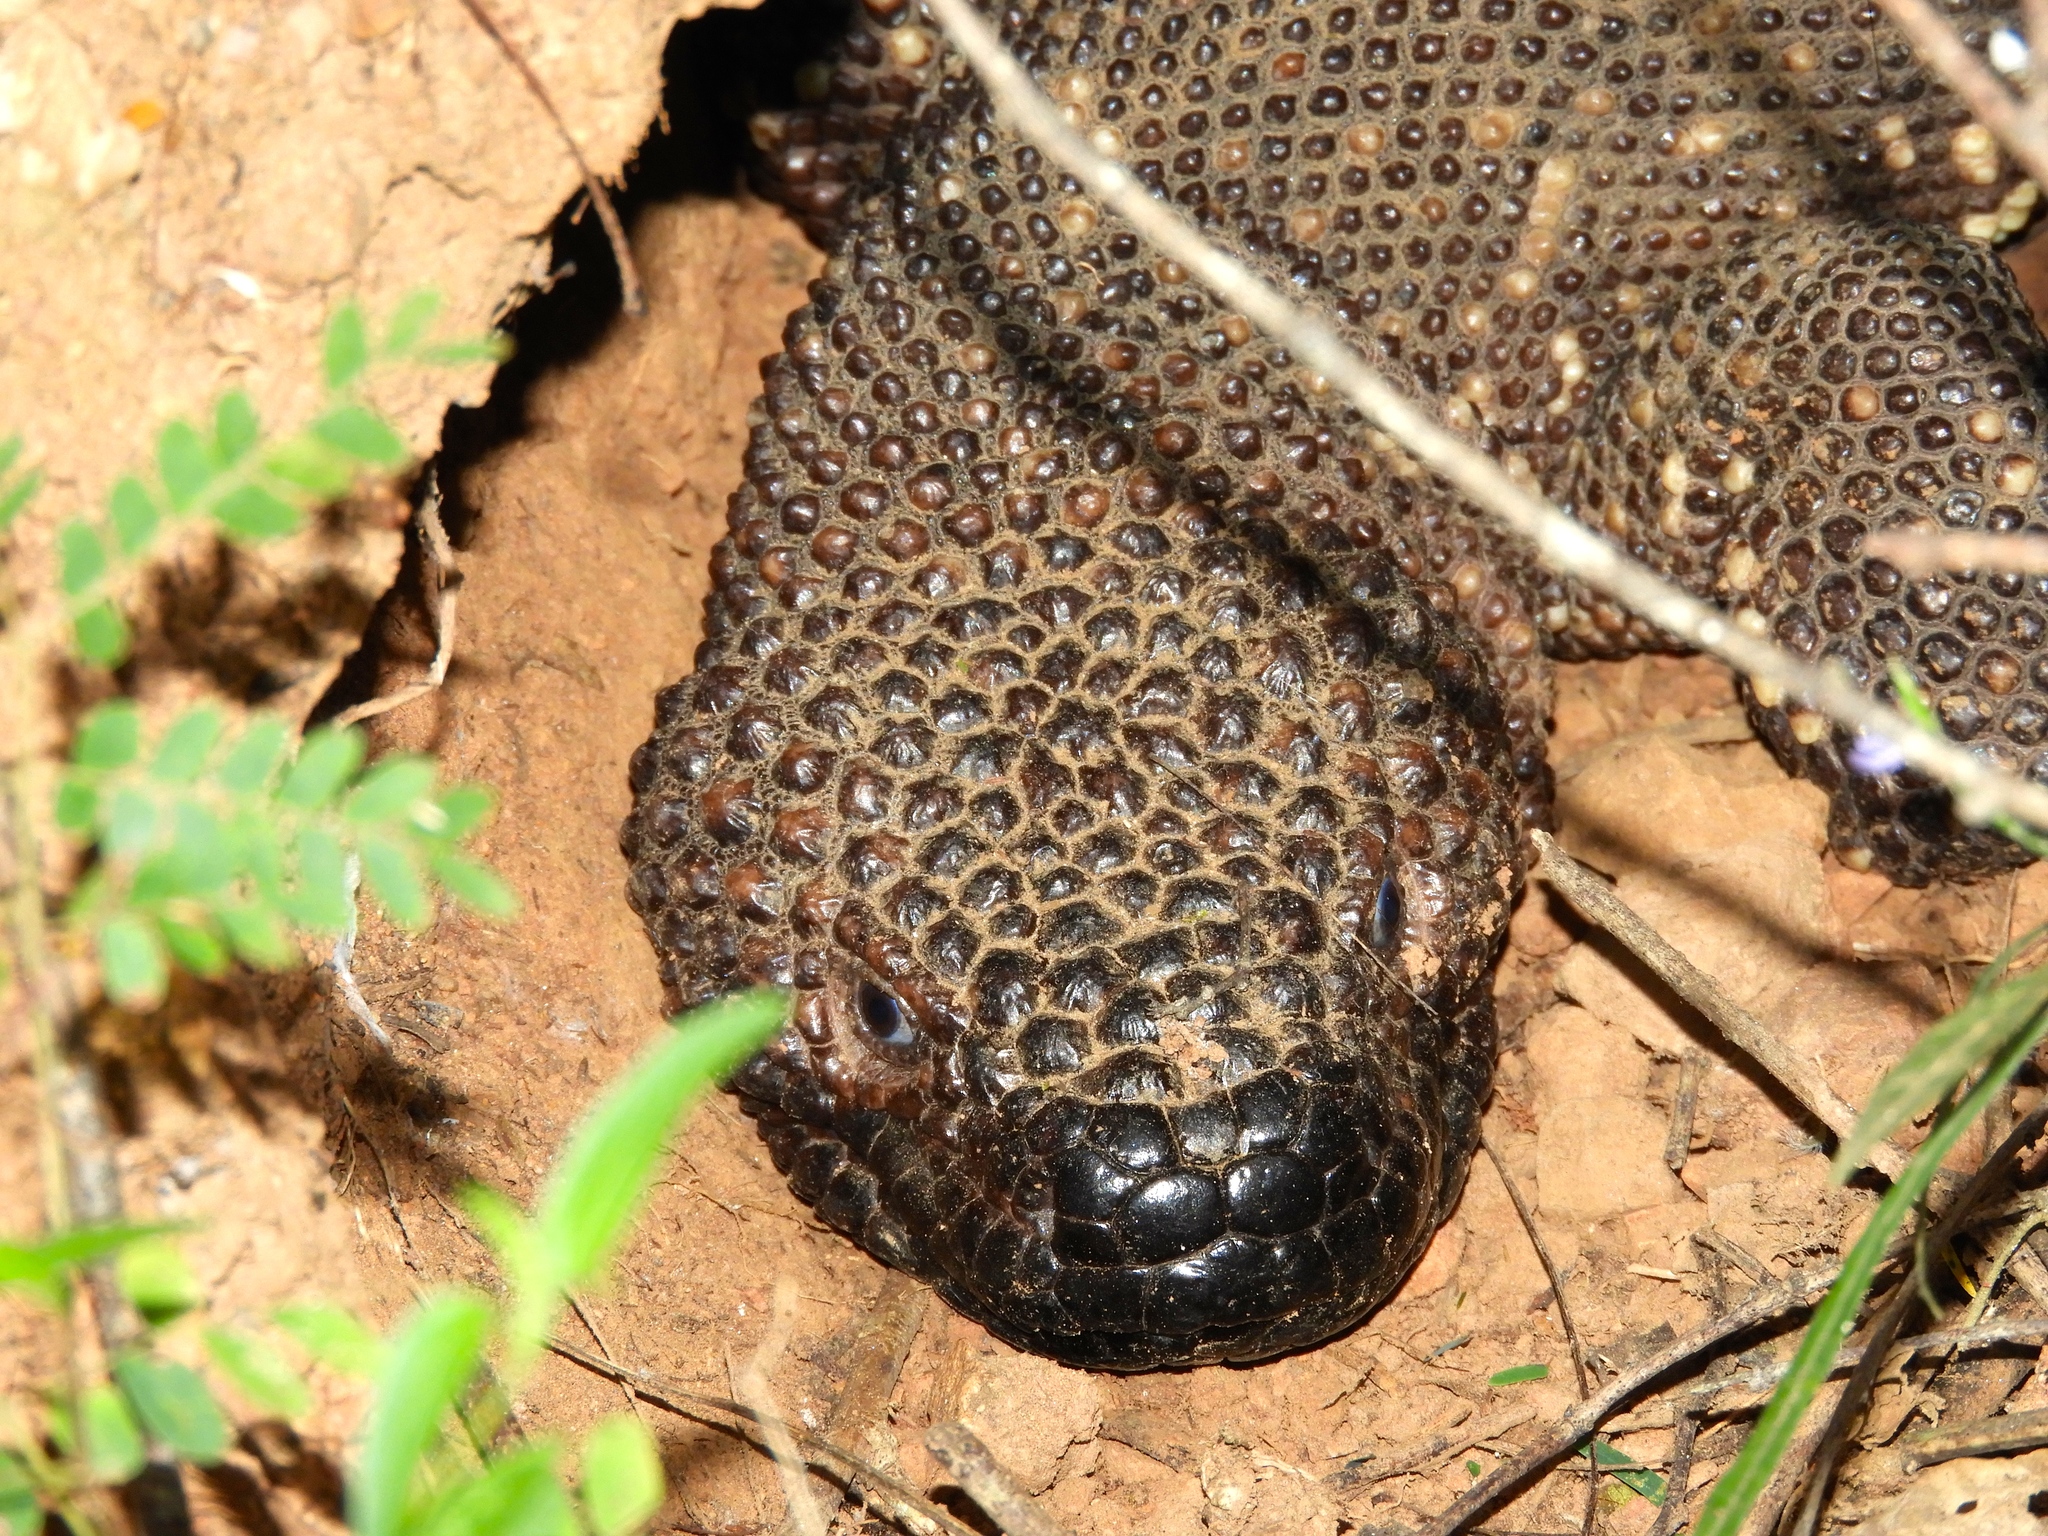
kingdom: Animalia
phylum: Chordata
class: Squamata
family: Helodermatidae
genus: Heloderma
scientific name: Heloderma horridum
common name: Mexican beaded lizard
